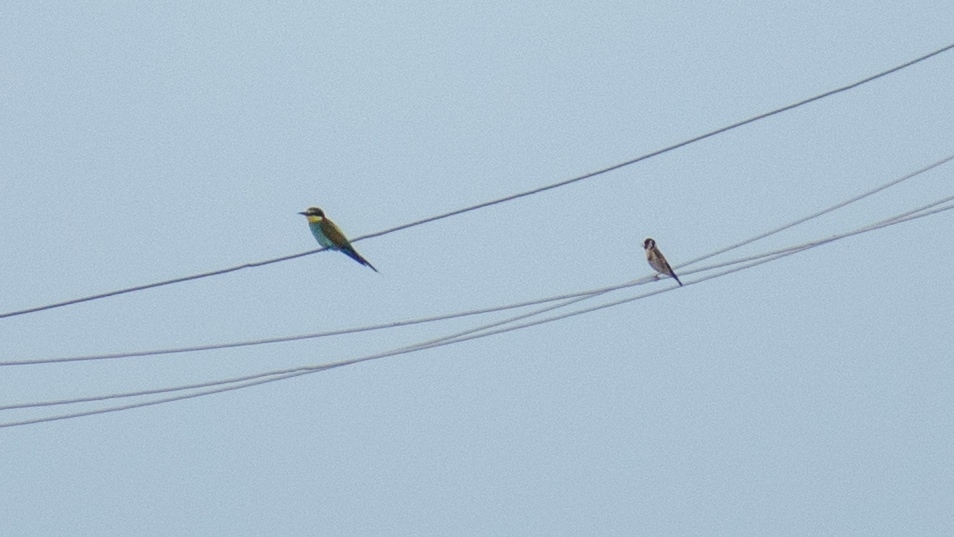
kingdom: Animalia
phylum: Chordata
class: Aves
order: Coraciiformes
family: Meropidae
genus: Merops
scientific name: Merops apiaster
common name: European bee-eater
